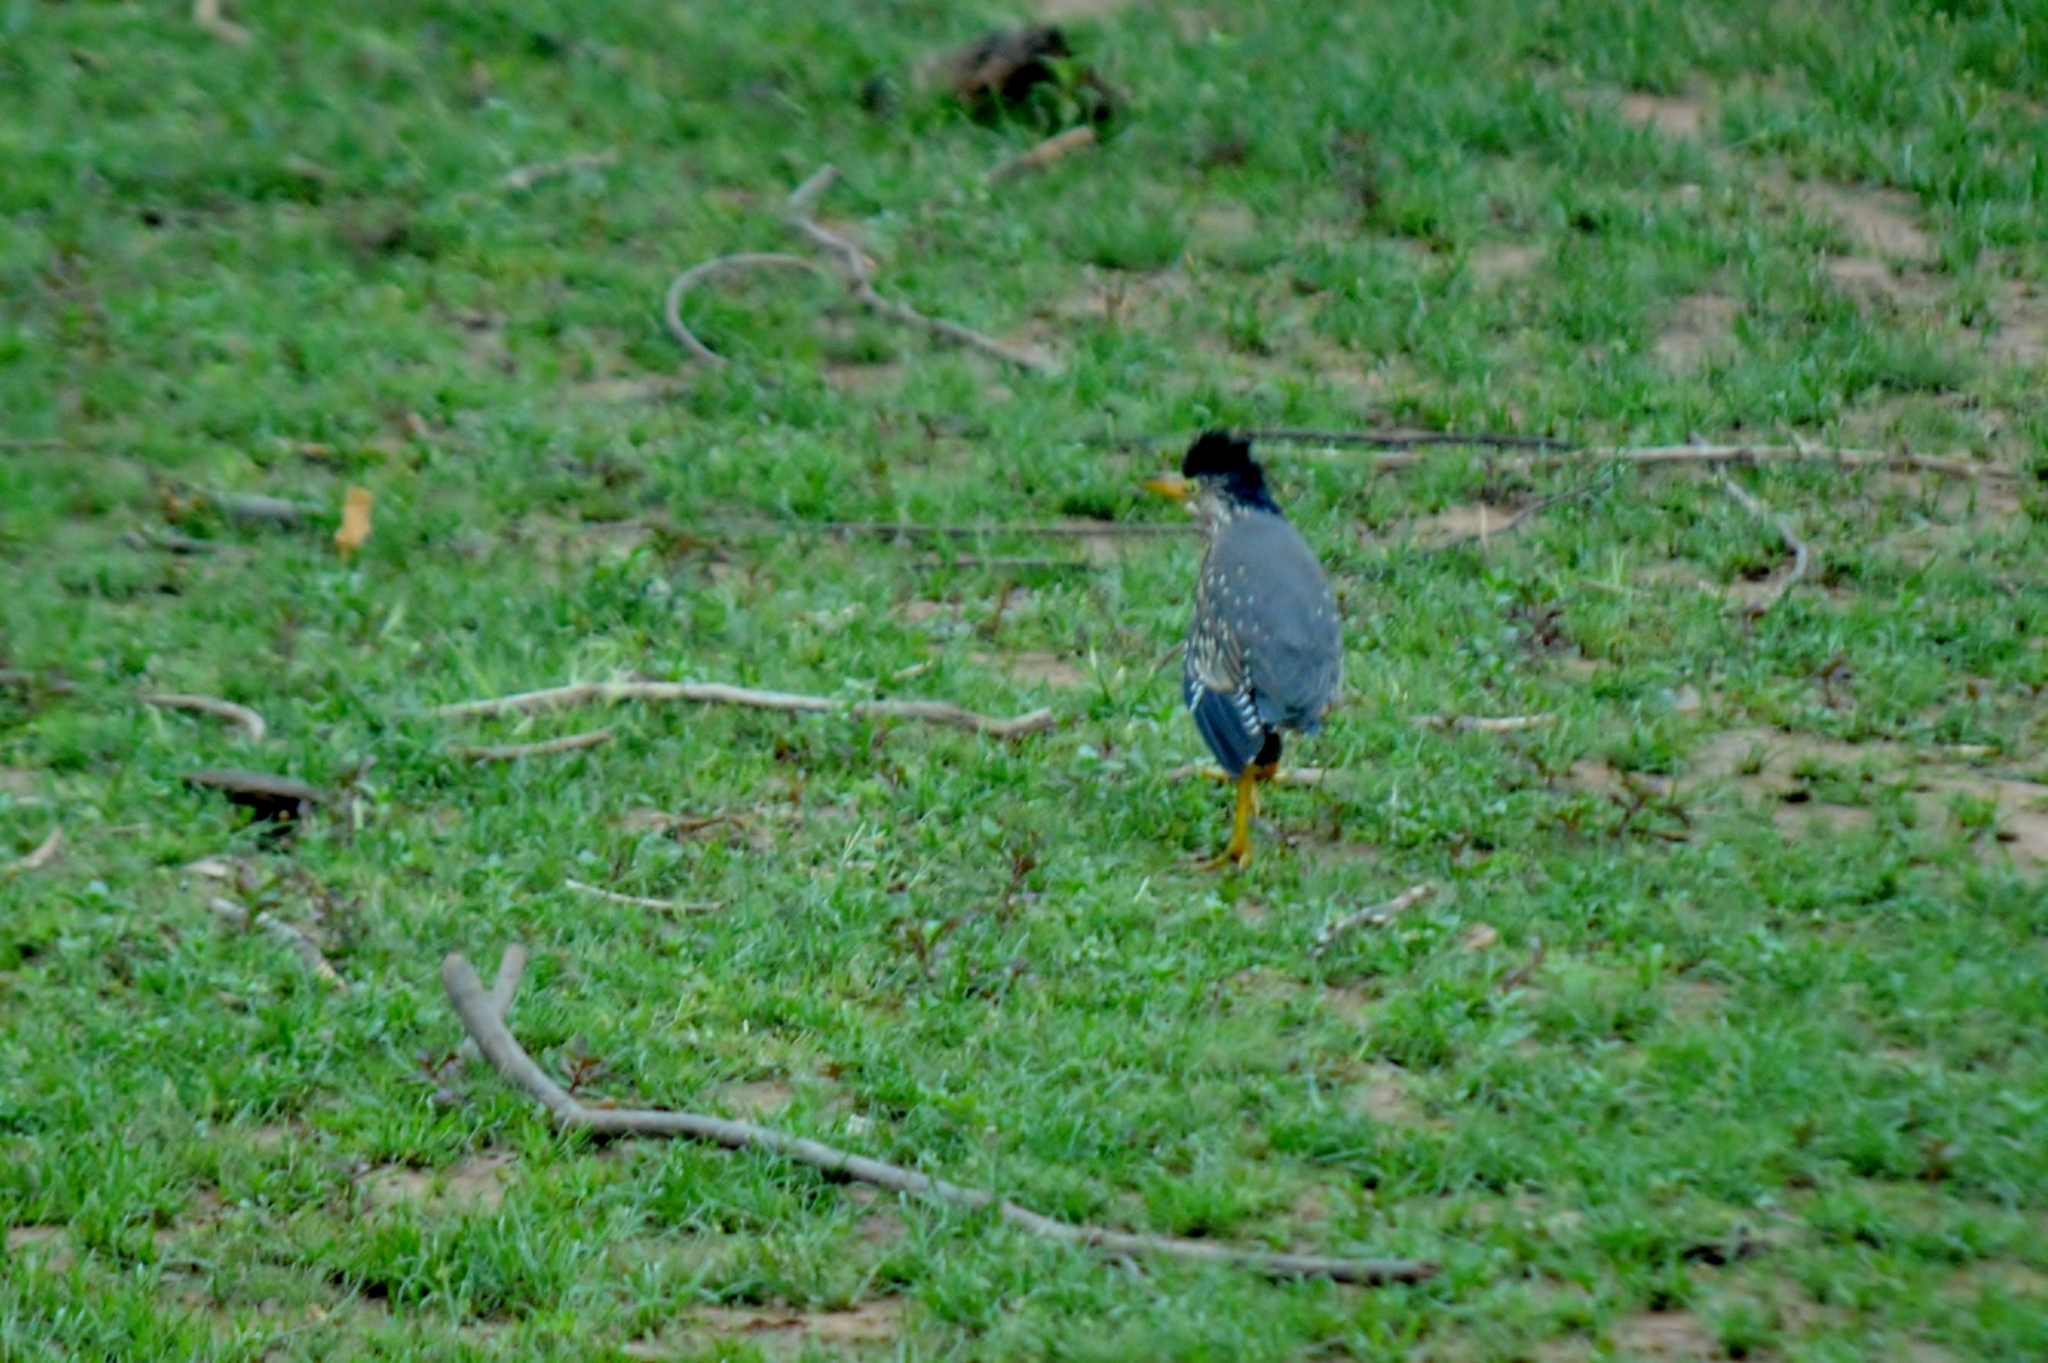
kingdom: Animalia
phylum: Chordata
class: Aves
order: Pelecaniformes
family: Ardeidae
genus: Butorides
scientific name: Butorides striata
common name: Striated heron
